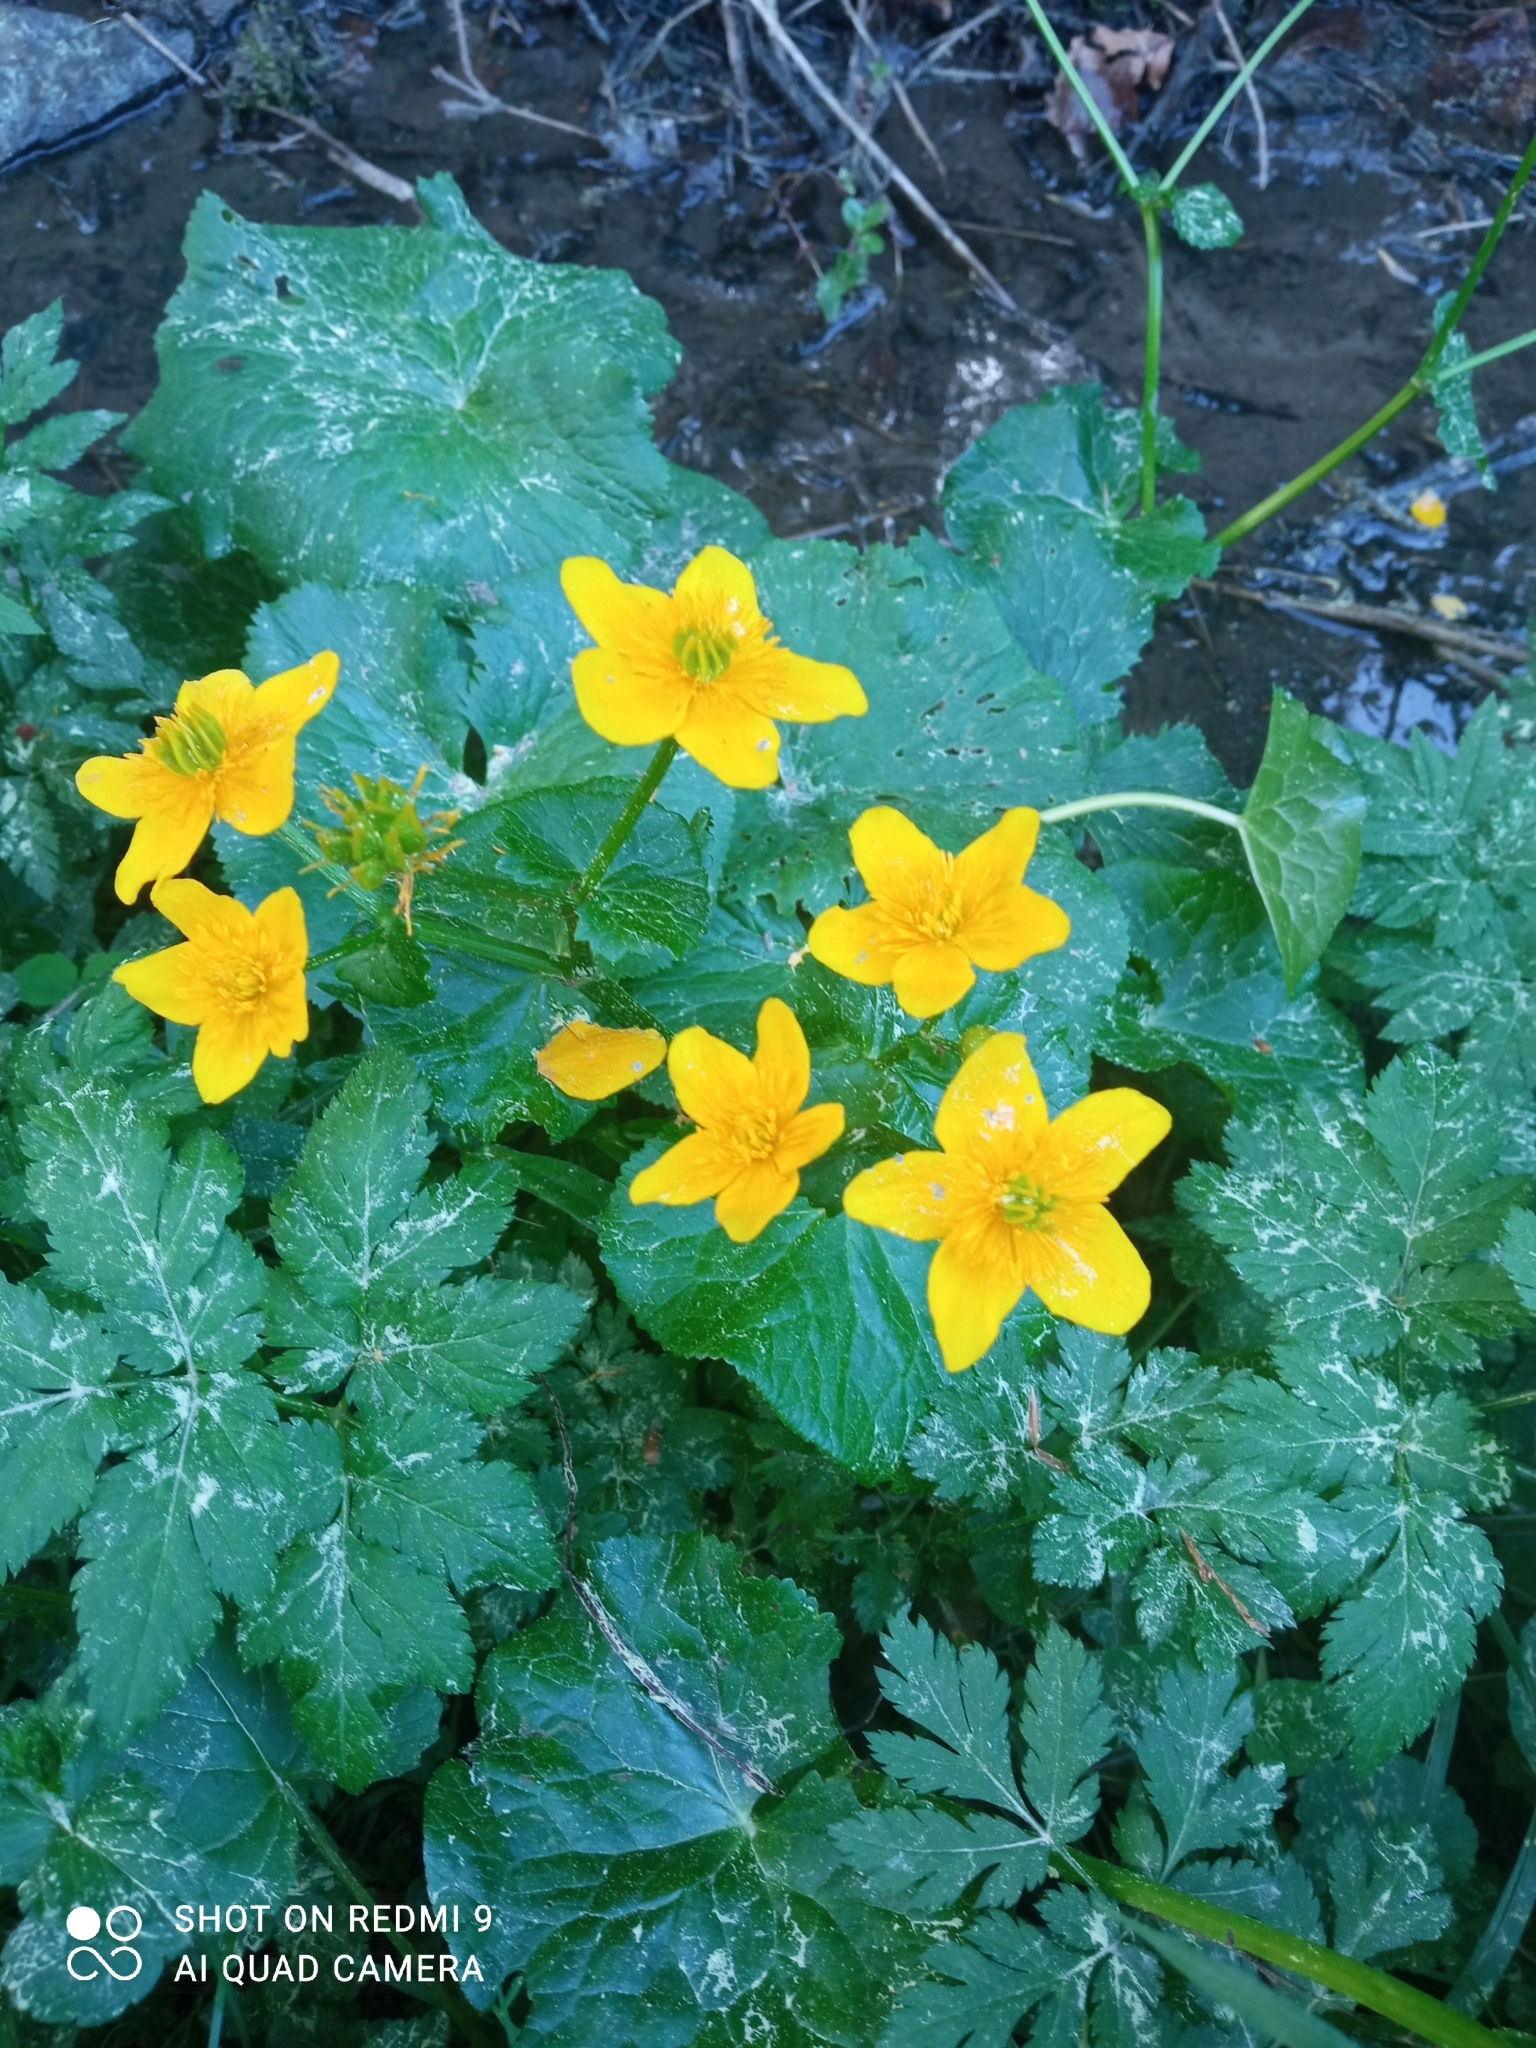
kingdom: Plantae
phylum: Tracheophyta
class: Magnoliopsida
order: Ranunculales
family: Ranunculaceae
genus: Caltha
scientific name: Caltha palustris
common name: Marsh marigold
